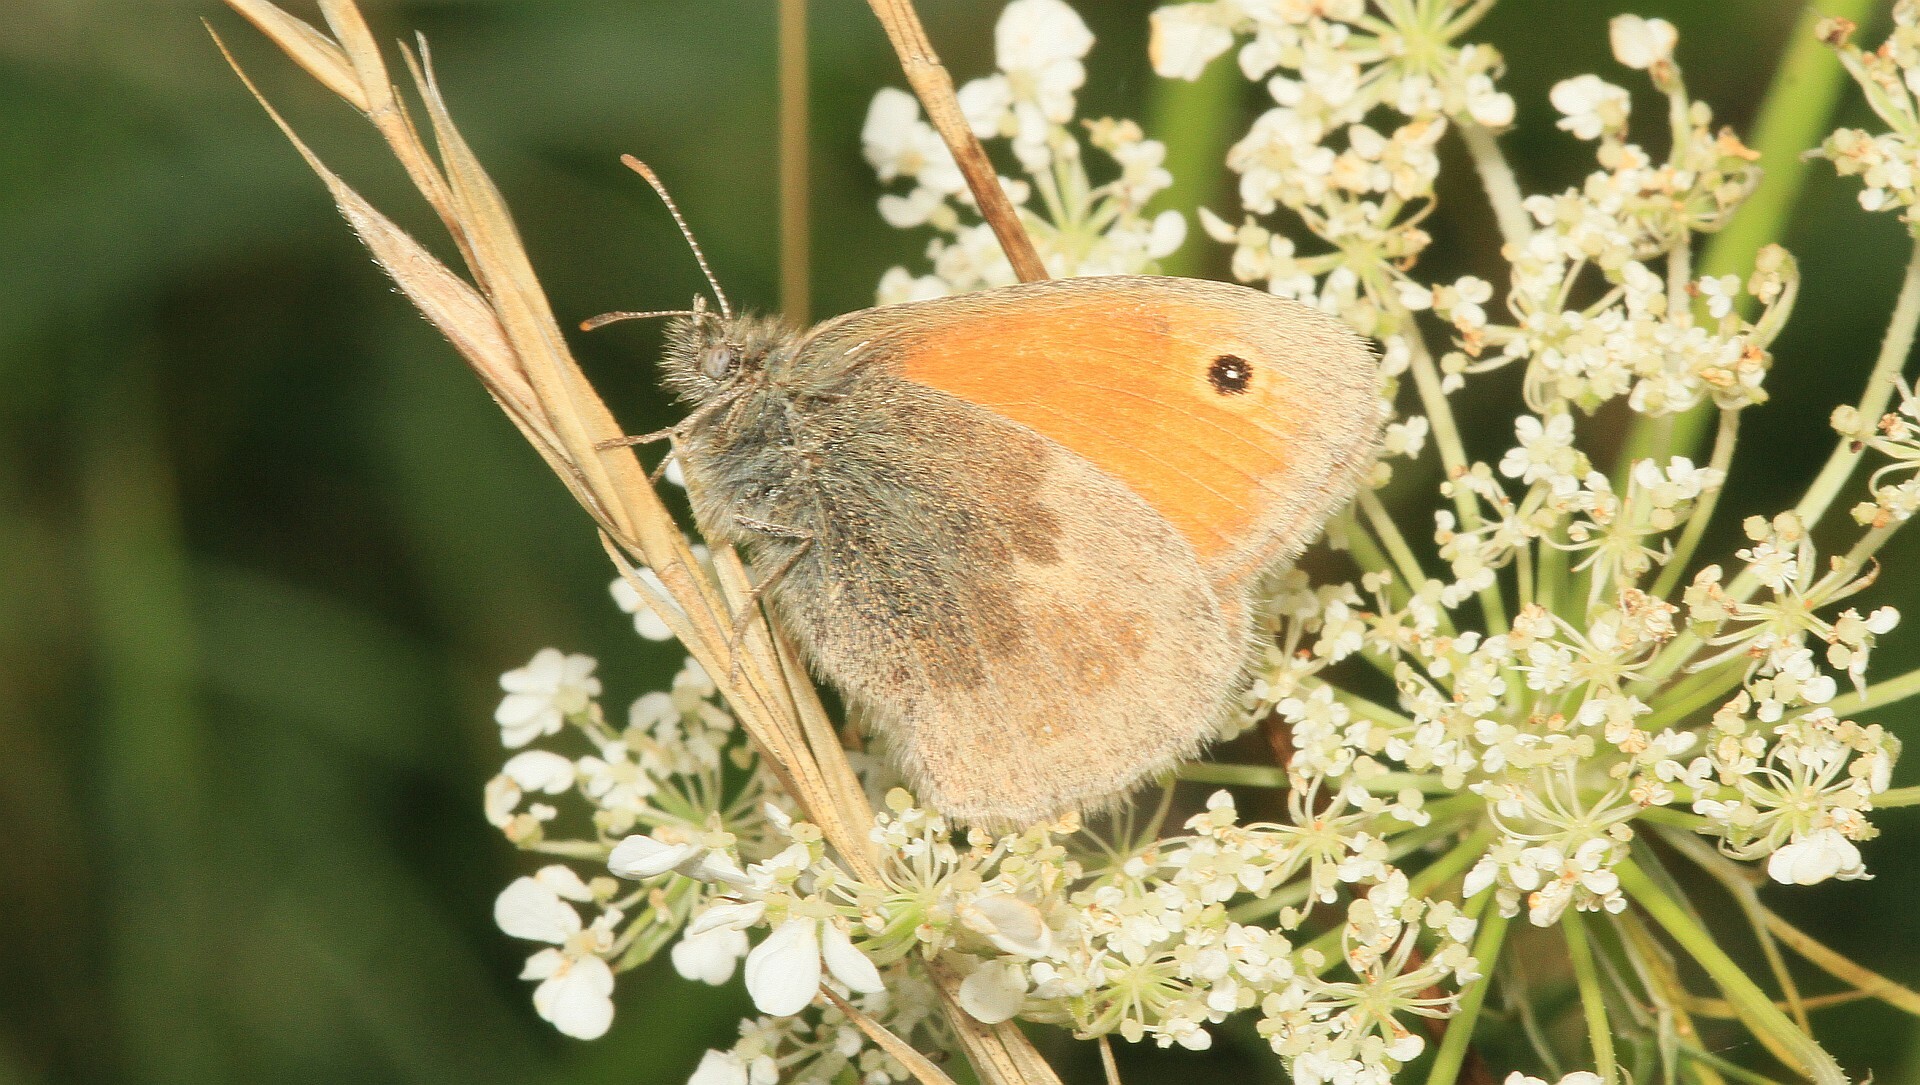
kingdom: Animalia
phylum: Arthropoda
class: Insecta
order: Lepidoptera
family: Nymphalidae
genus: Coenonympha
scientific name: Coenonympha pamphilus
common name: Small heath
